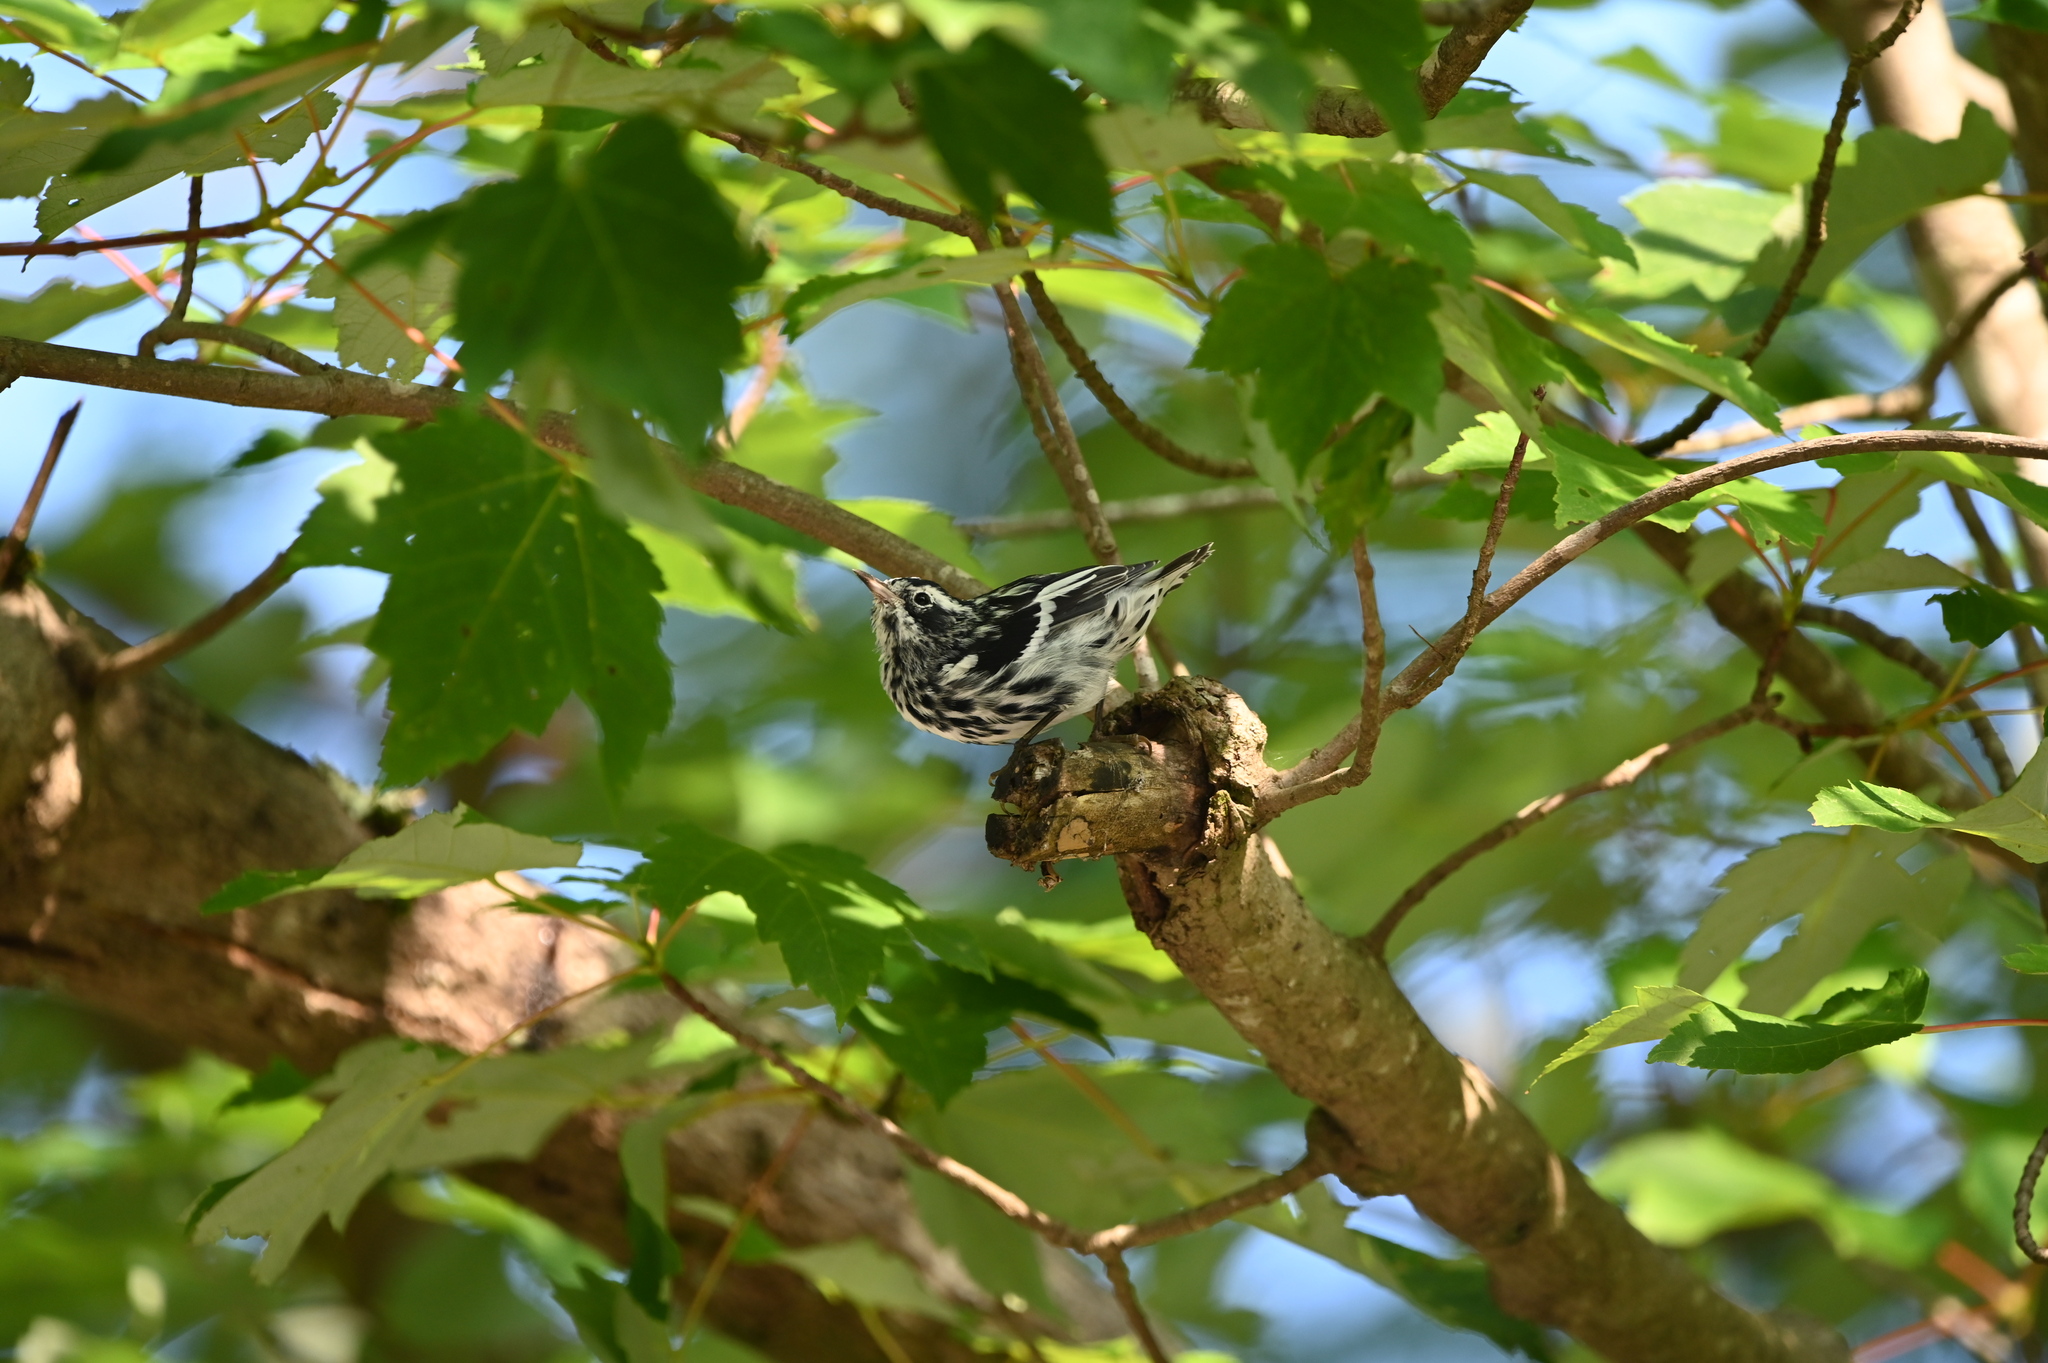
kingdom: Animalia
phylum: Chordata
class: Aves
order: Passeriformes
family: Parulidae
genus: Mniotilta
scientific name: Mniotilta varia
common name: Black-and-white warbler
